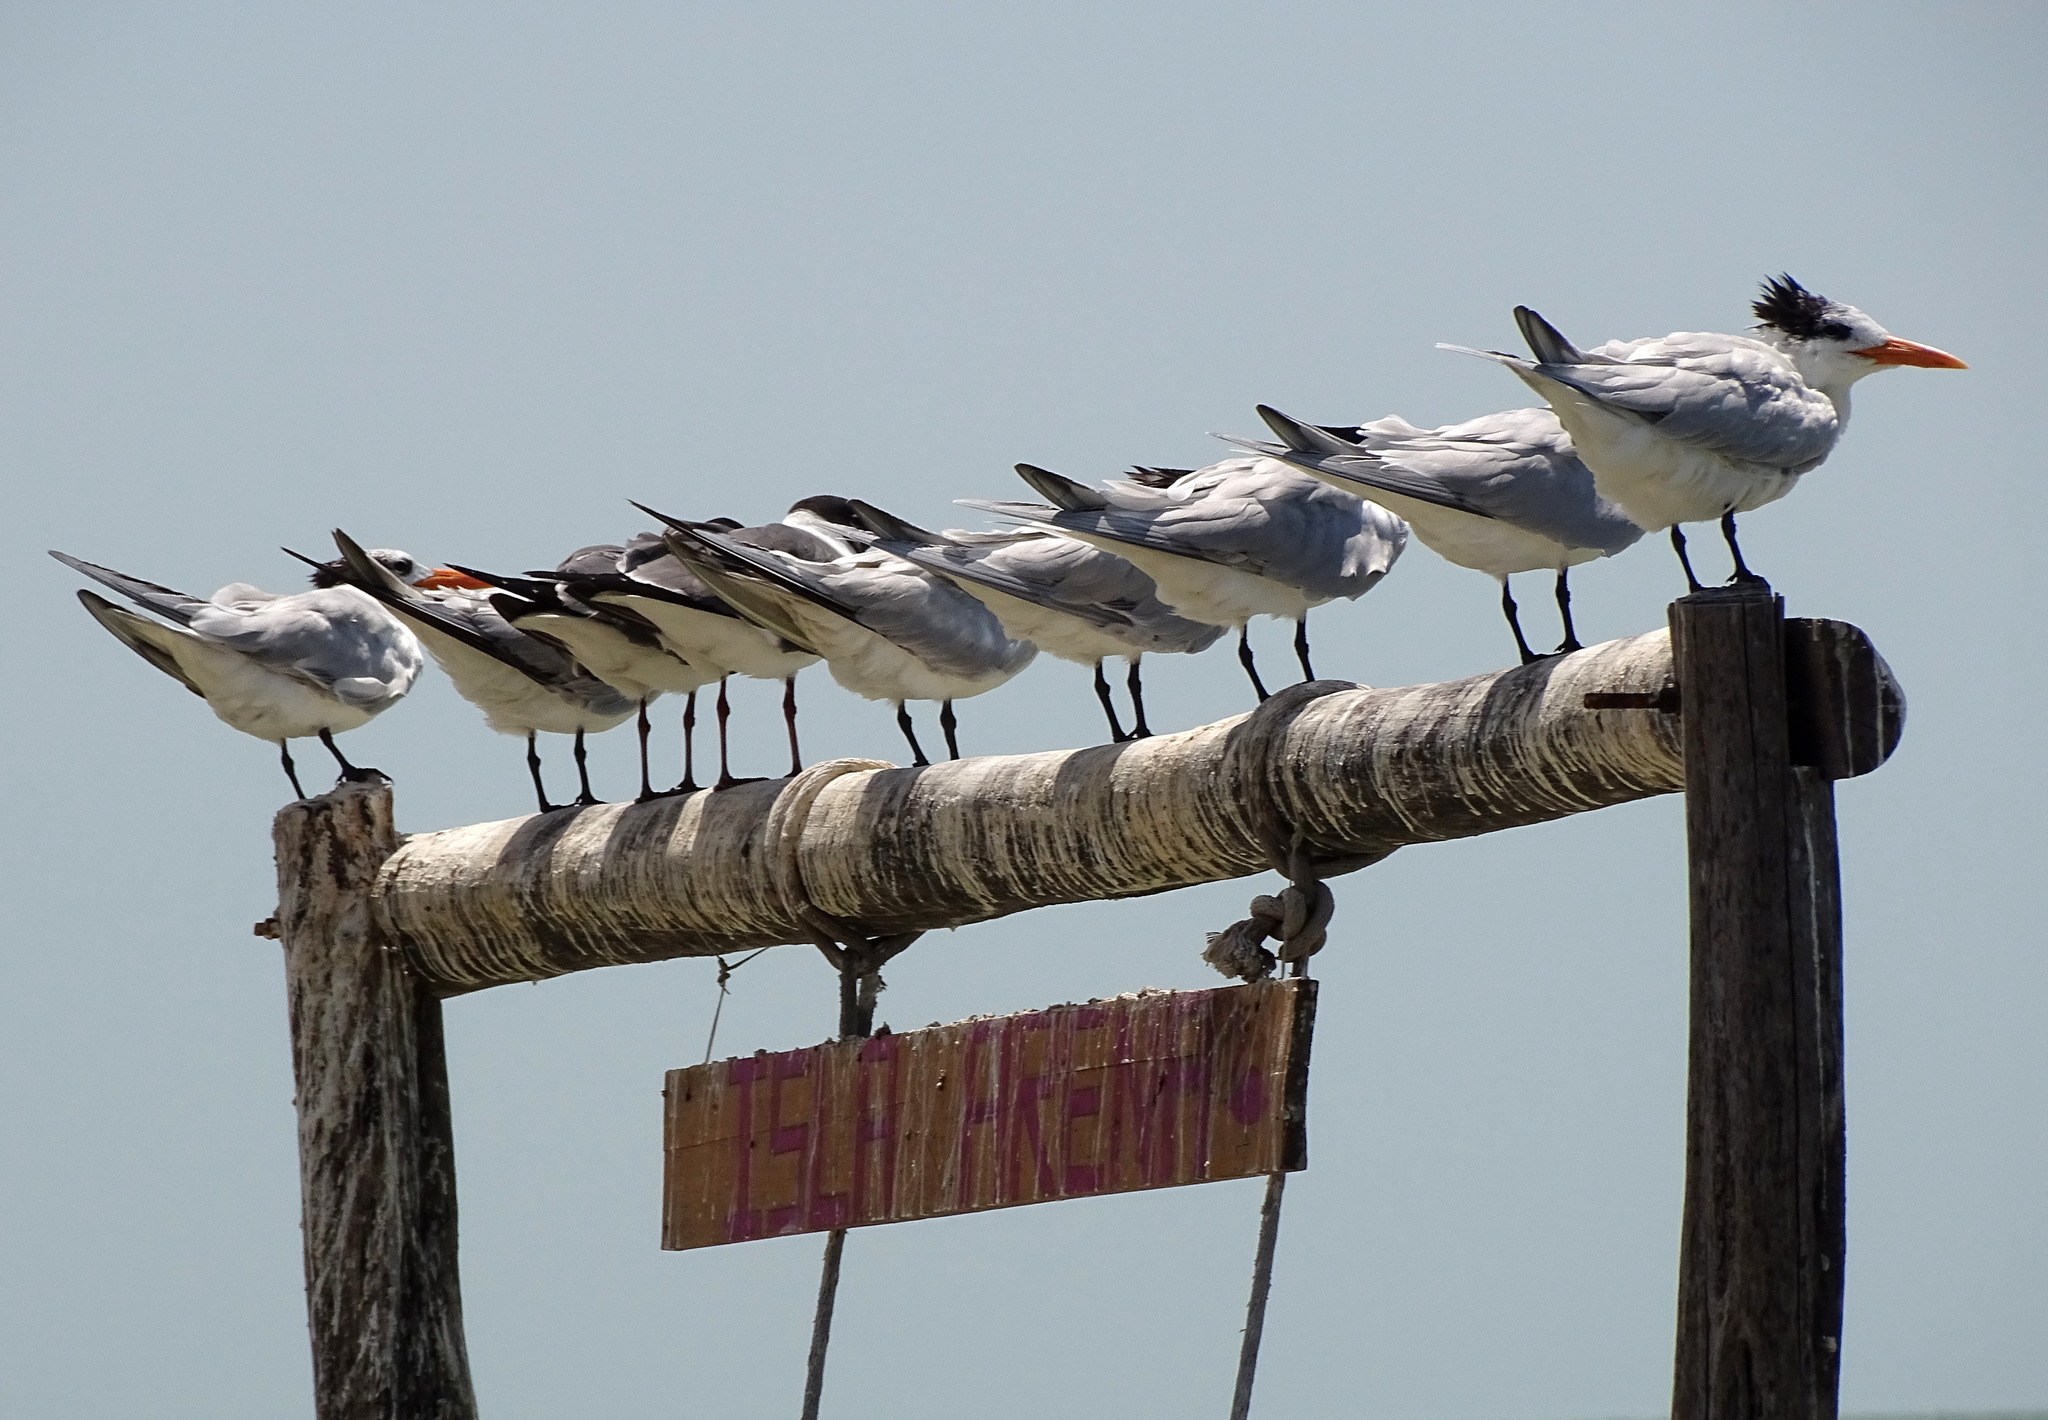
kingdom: Animalia
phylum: Chordata
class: Aves
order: Charadriiformes
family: Laridae
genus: Thalasseus
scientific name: Thalasseus maximus
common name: Royal tern
